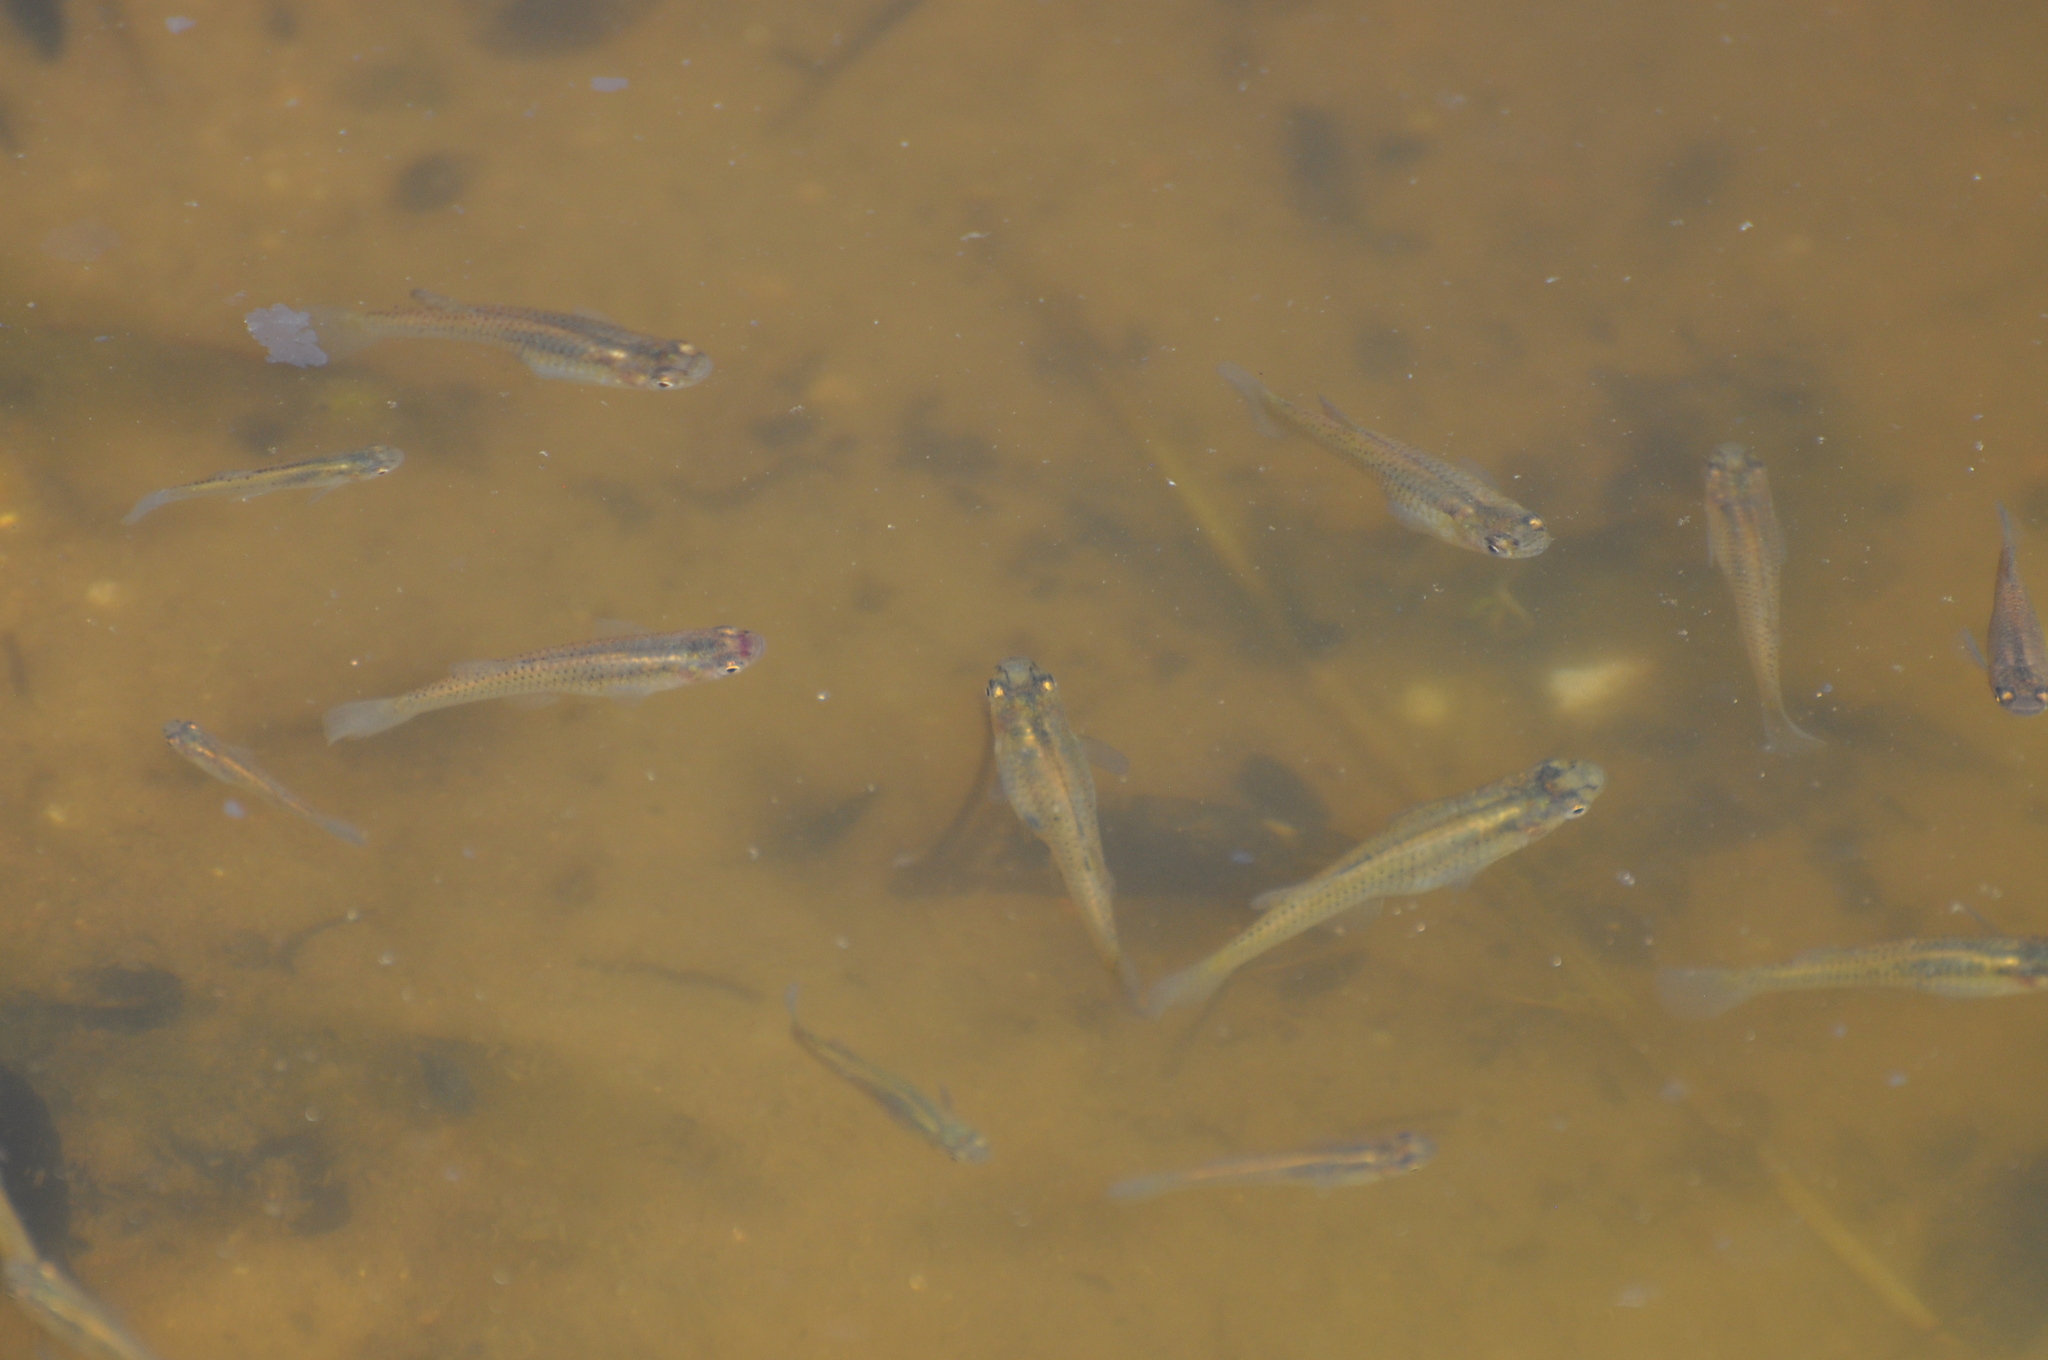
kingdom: Animalia
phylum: Chordata
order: Cyprinodontiformes
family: Poeciliidae
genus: Gambusia
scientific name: Gambusia affinis
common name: Mosquitofish
